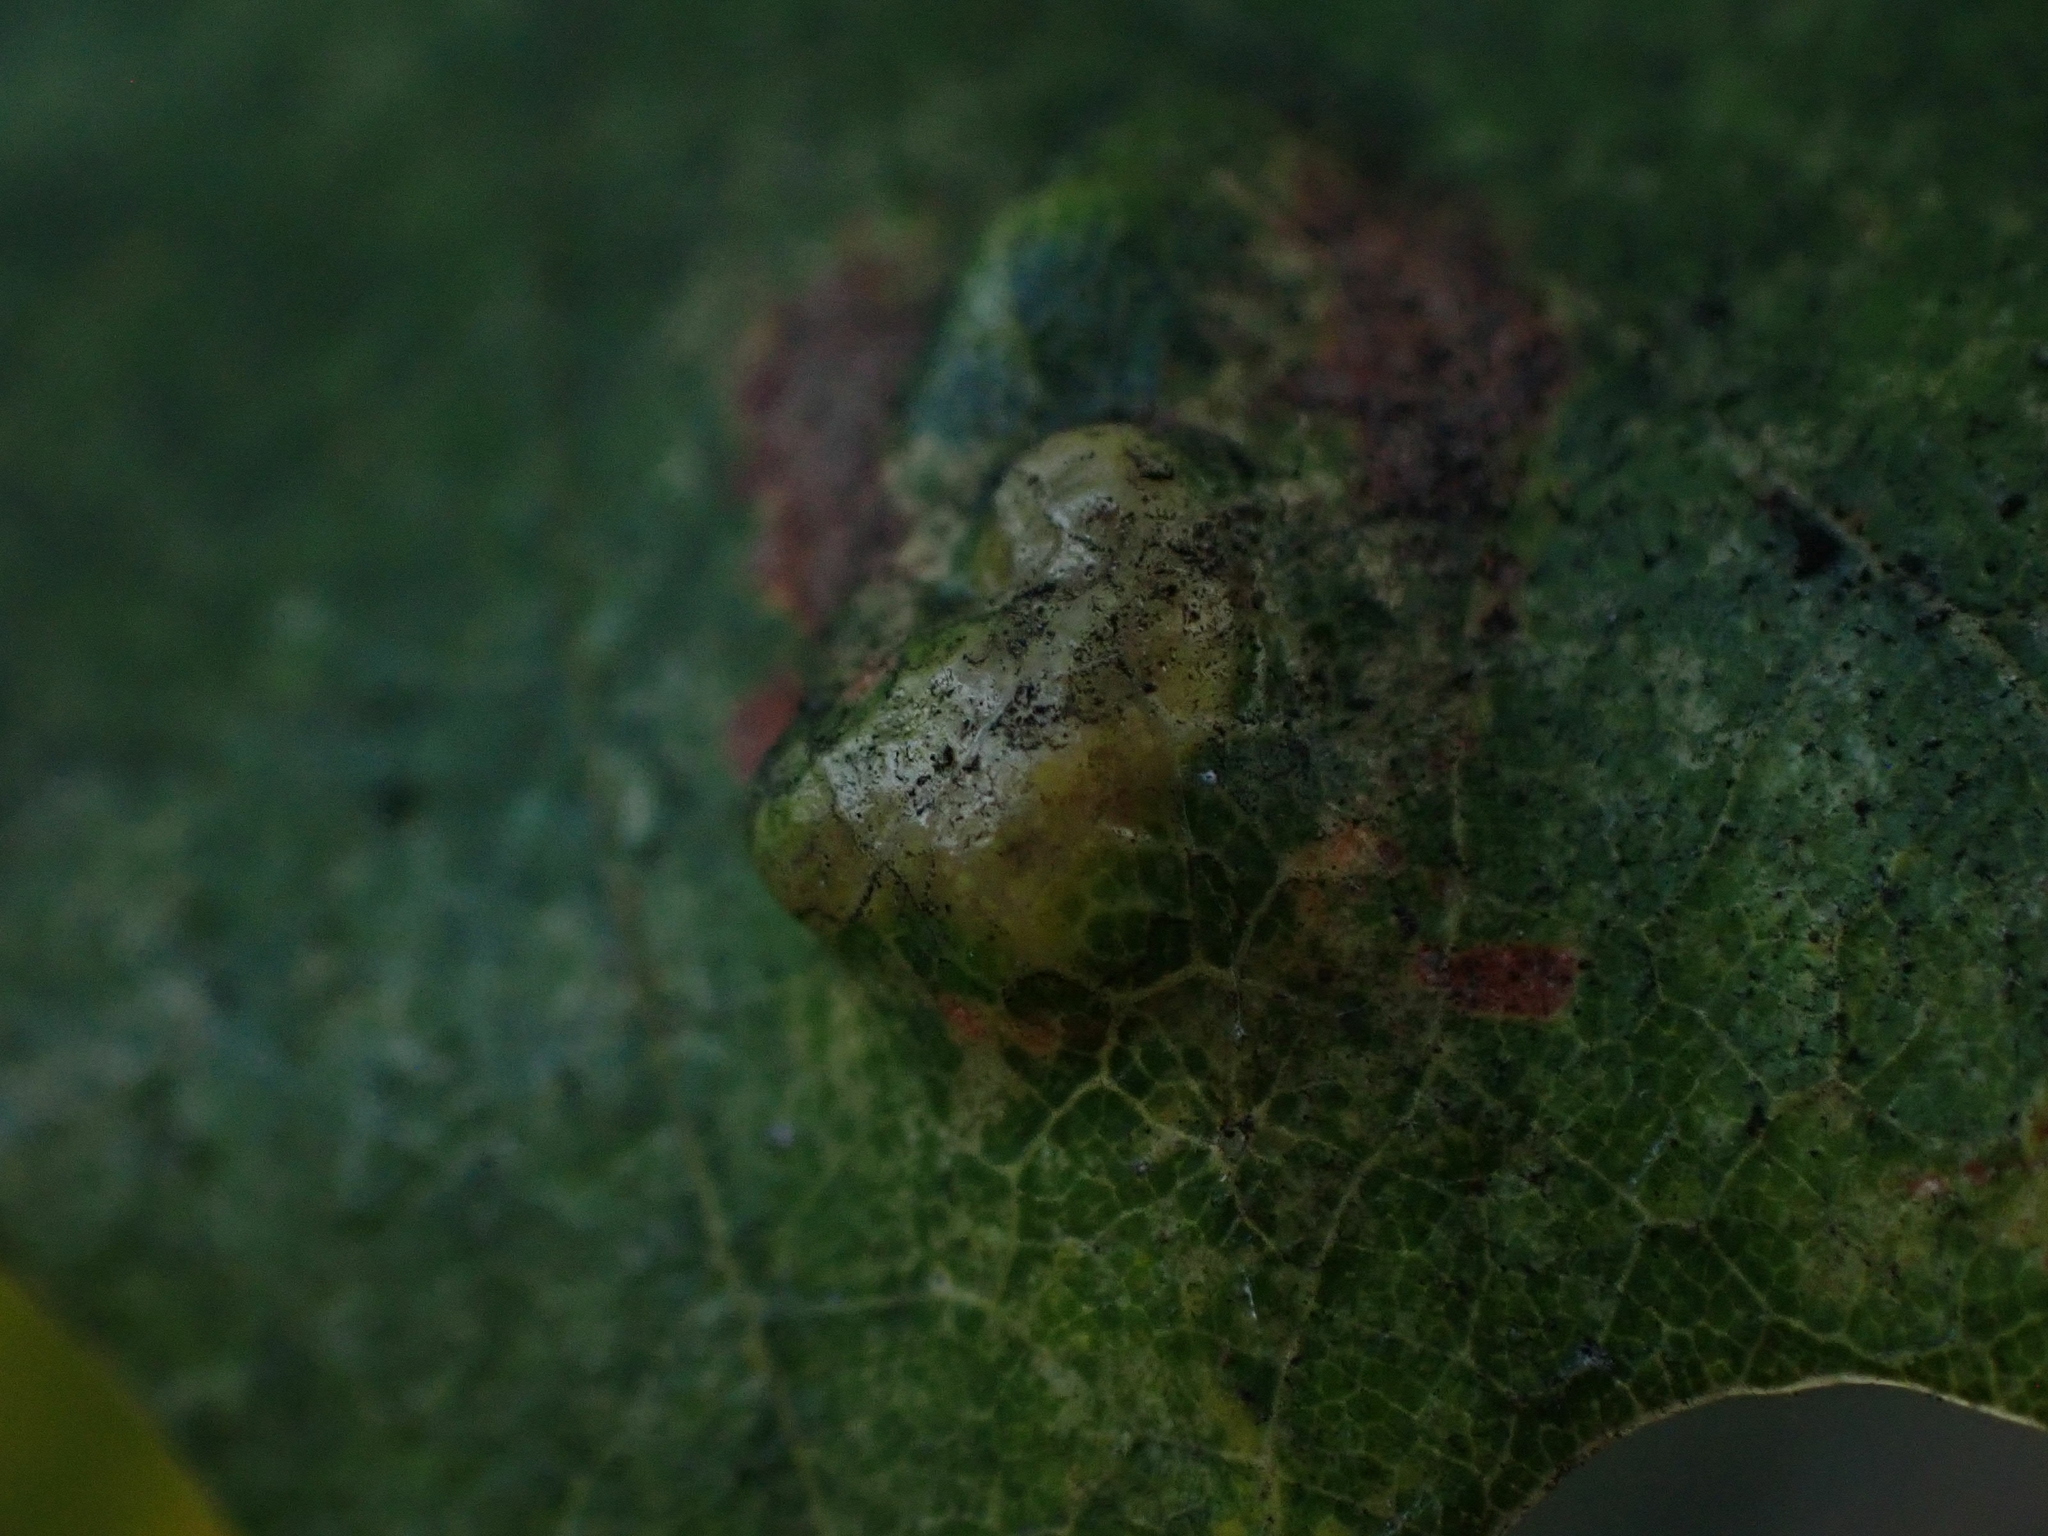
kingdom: Animalia
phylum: Arthropoda
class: Arachnida
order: Trombidiformes
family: Eriophyidae
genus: Aceria
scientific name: Aceria quercina
